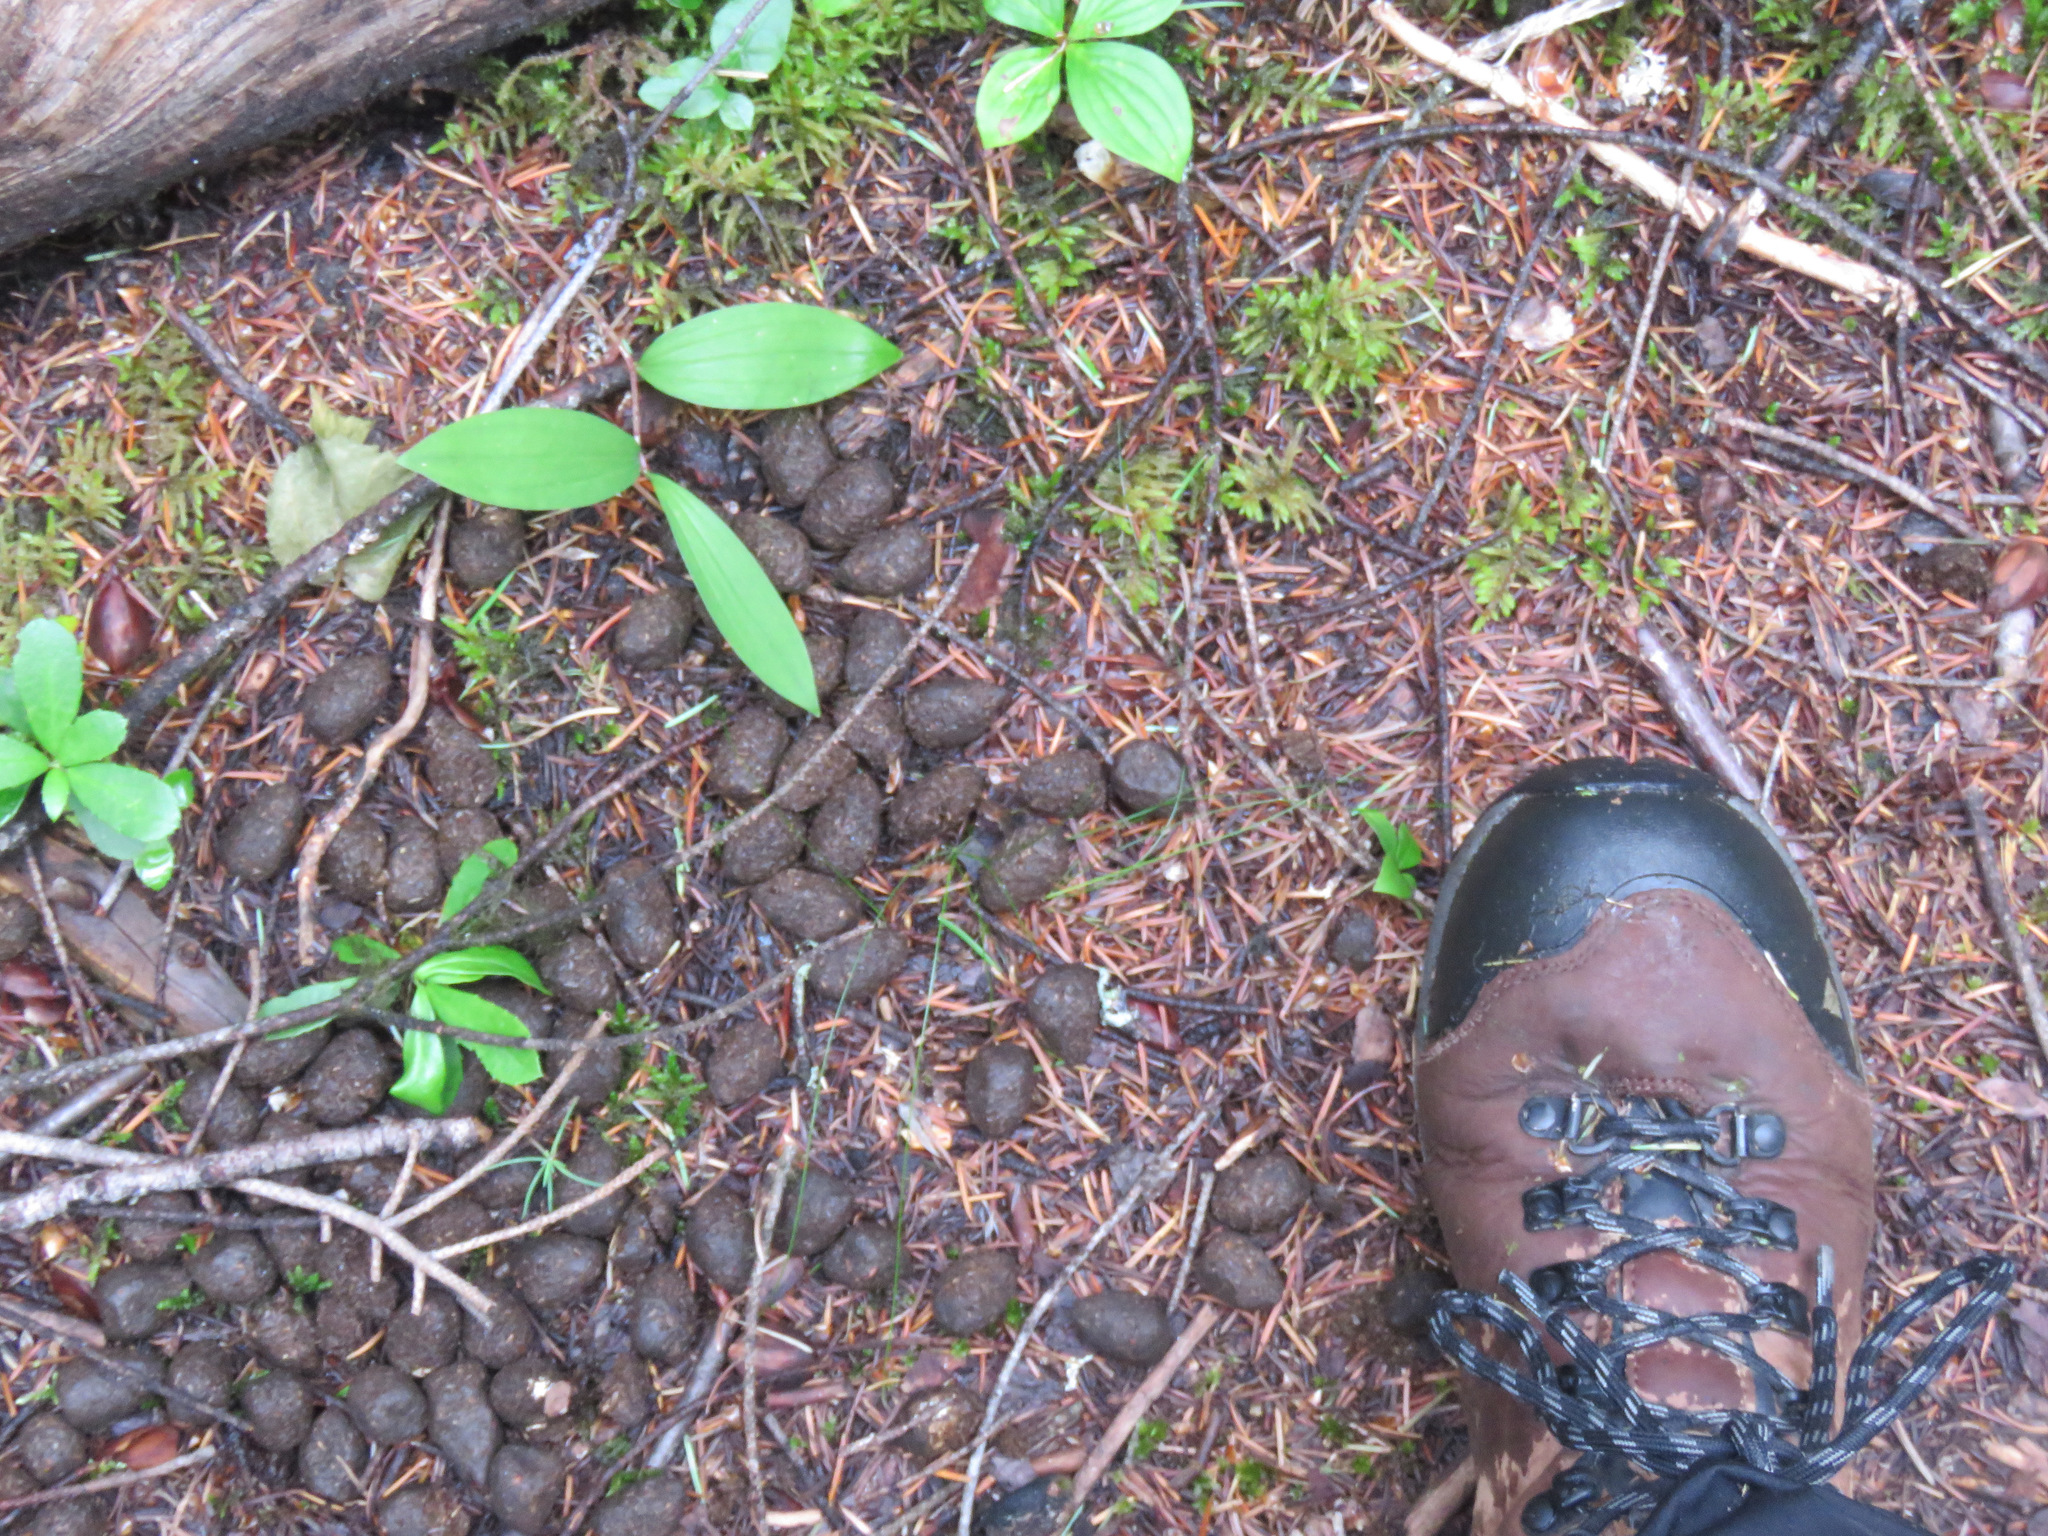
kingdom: Animalia
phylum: Chordata
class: Mammalia
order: Artiodactyla
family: Cervidae
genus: Alces
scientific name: Alces alces
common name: Moose
